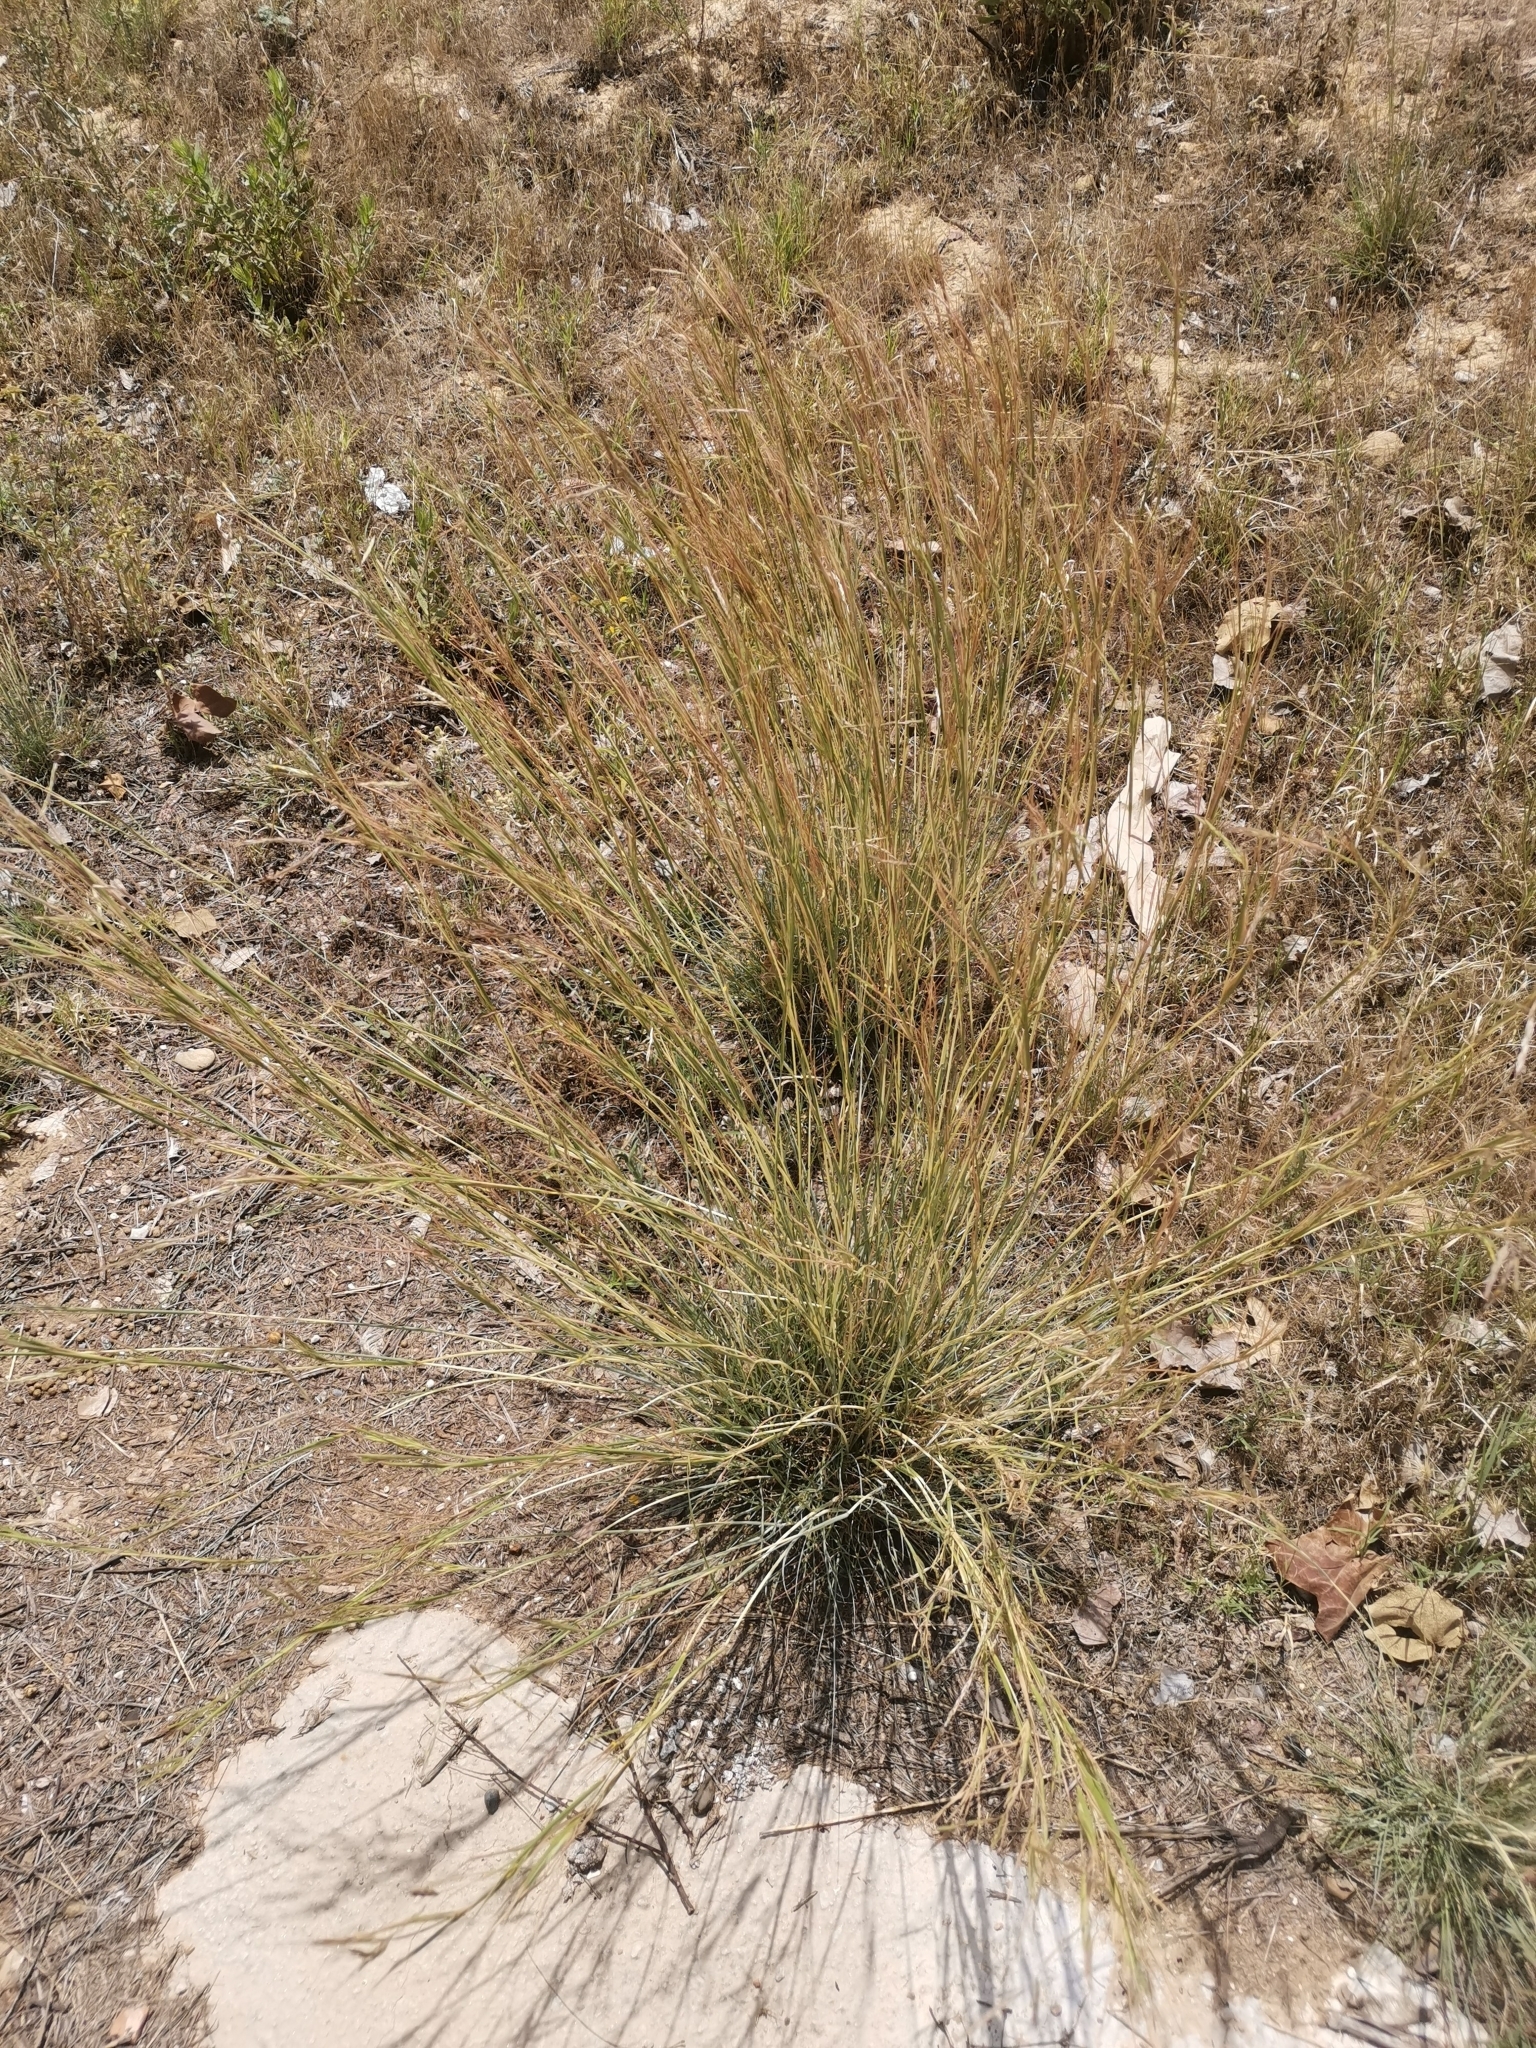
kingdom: Plantae
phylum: Tracheophyta
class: Liliopsida
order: Poales
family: Poaceae
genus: Hyparrhenia
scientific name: Hyparrhenia hirta
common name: Thatching grass
